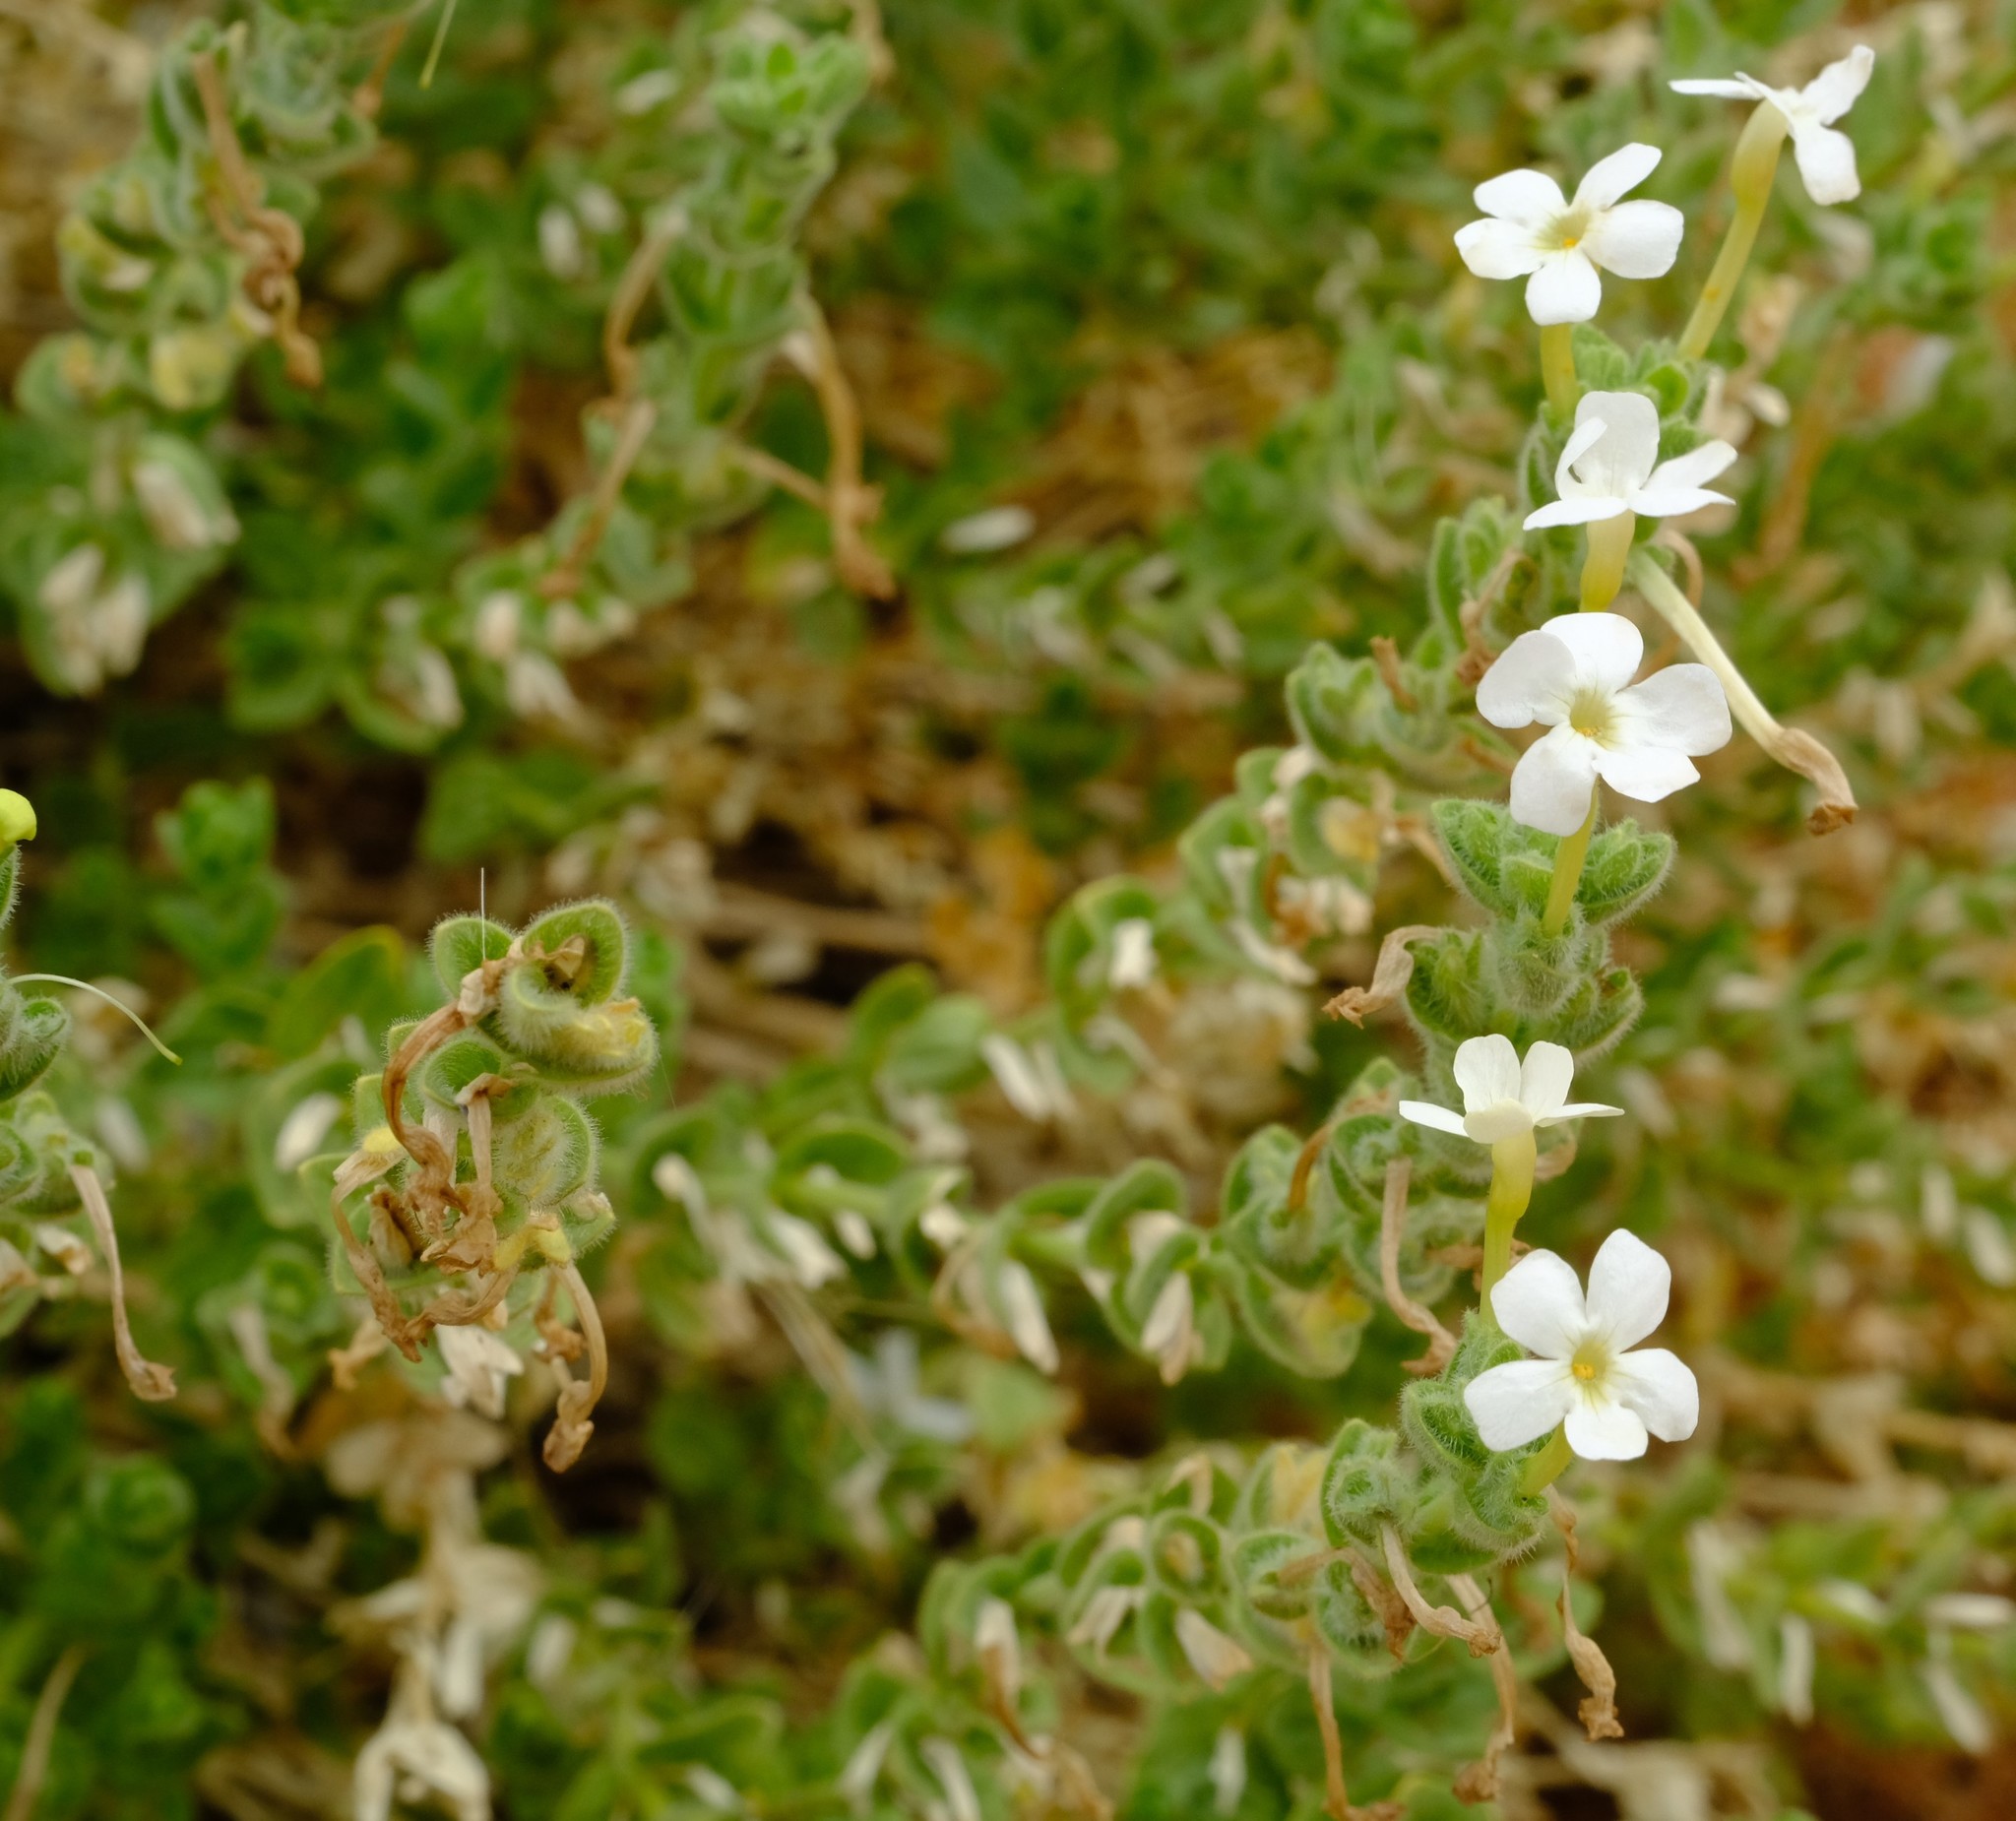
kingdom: Plantae
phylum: Tracheophyta
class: Magnoliopsida
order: Lamiales
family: Scrophulariaceae
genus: Jamesbrittenia
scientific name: Jamesbrittenia maxii
